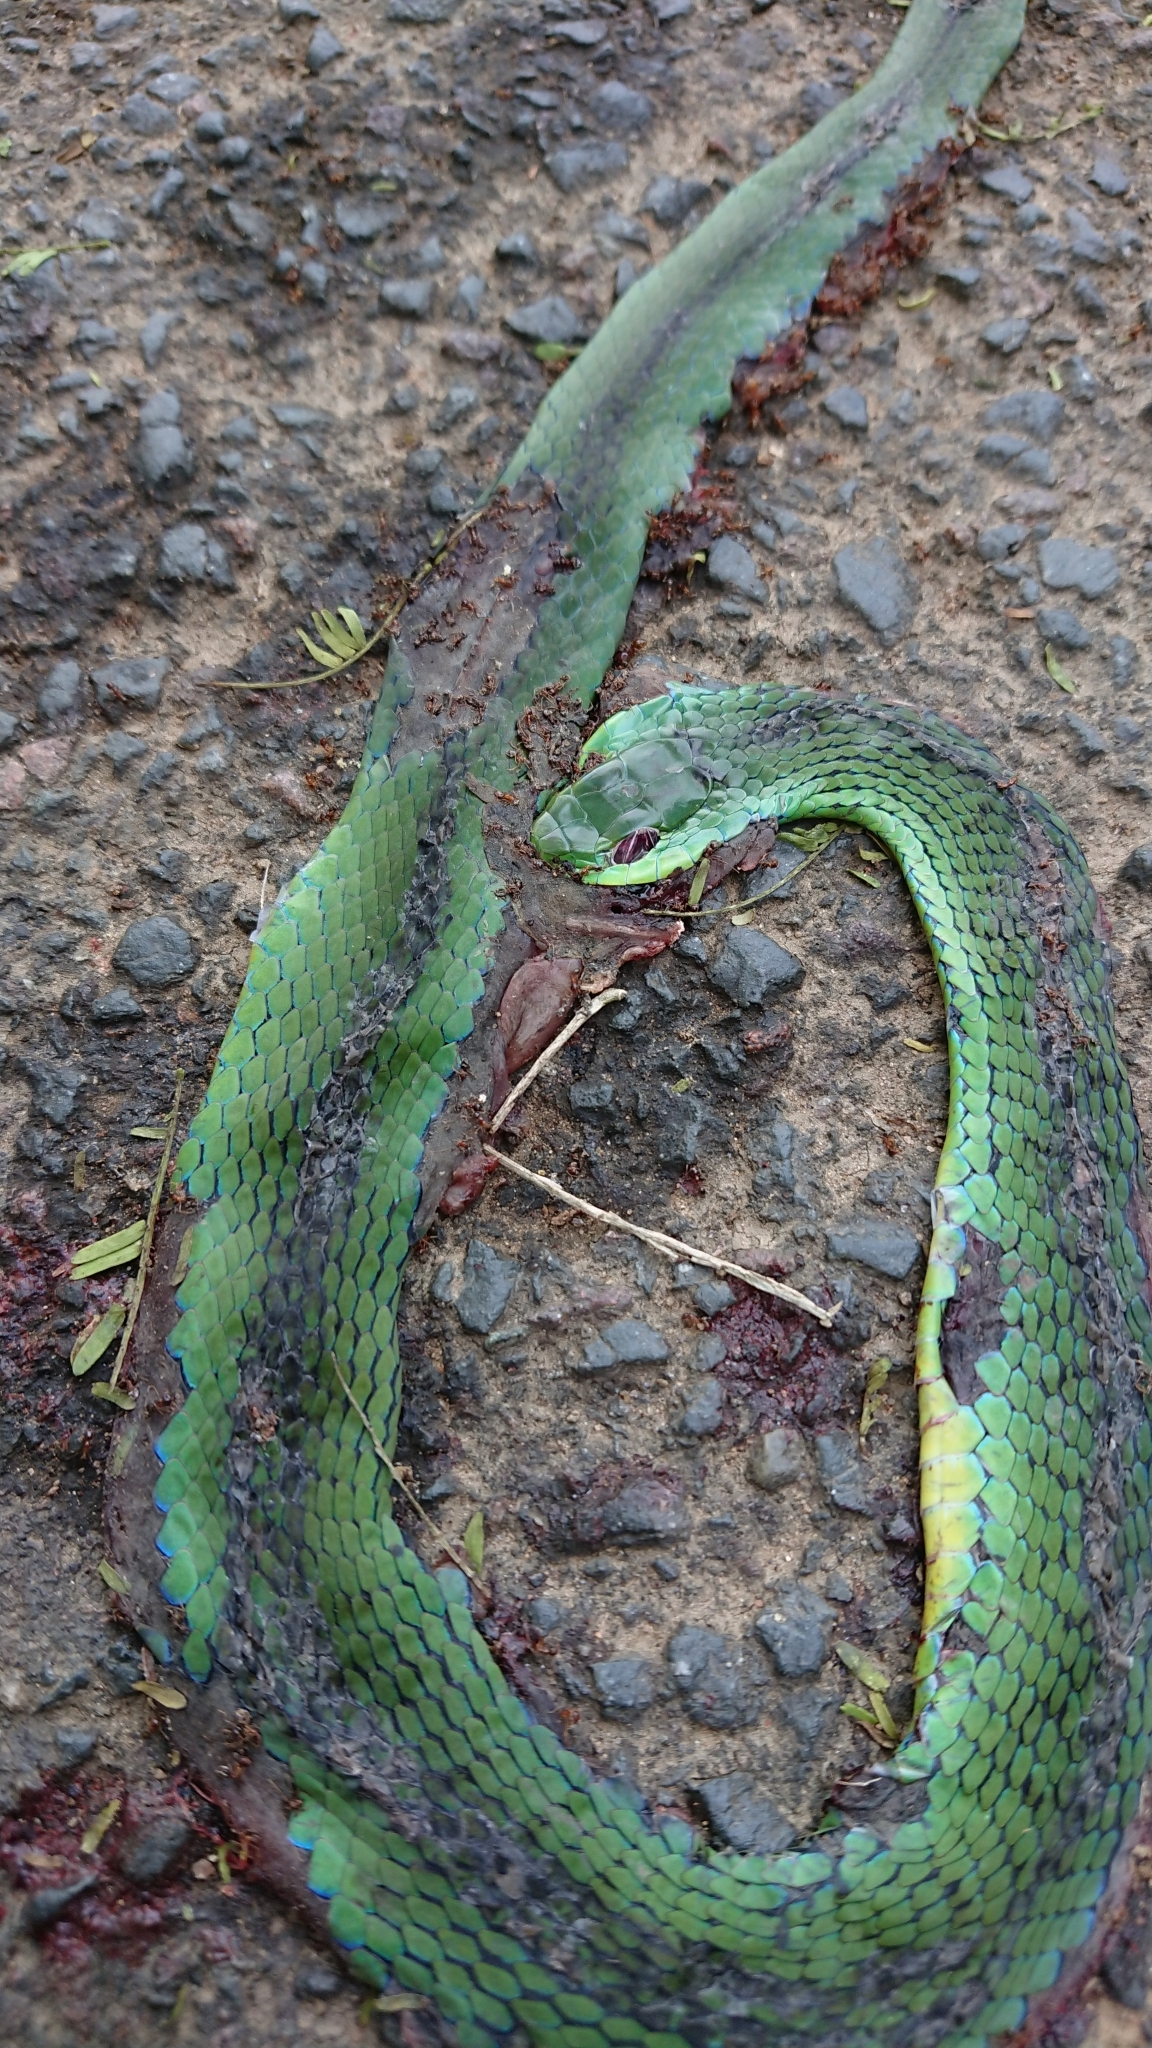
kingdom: Animalia
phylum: Chordata
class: Squamata
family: Colubridae
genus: Philothamnus
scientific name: Philothamnus natalensis
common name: Eastern natal green snake
